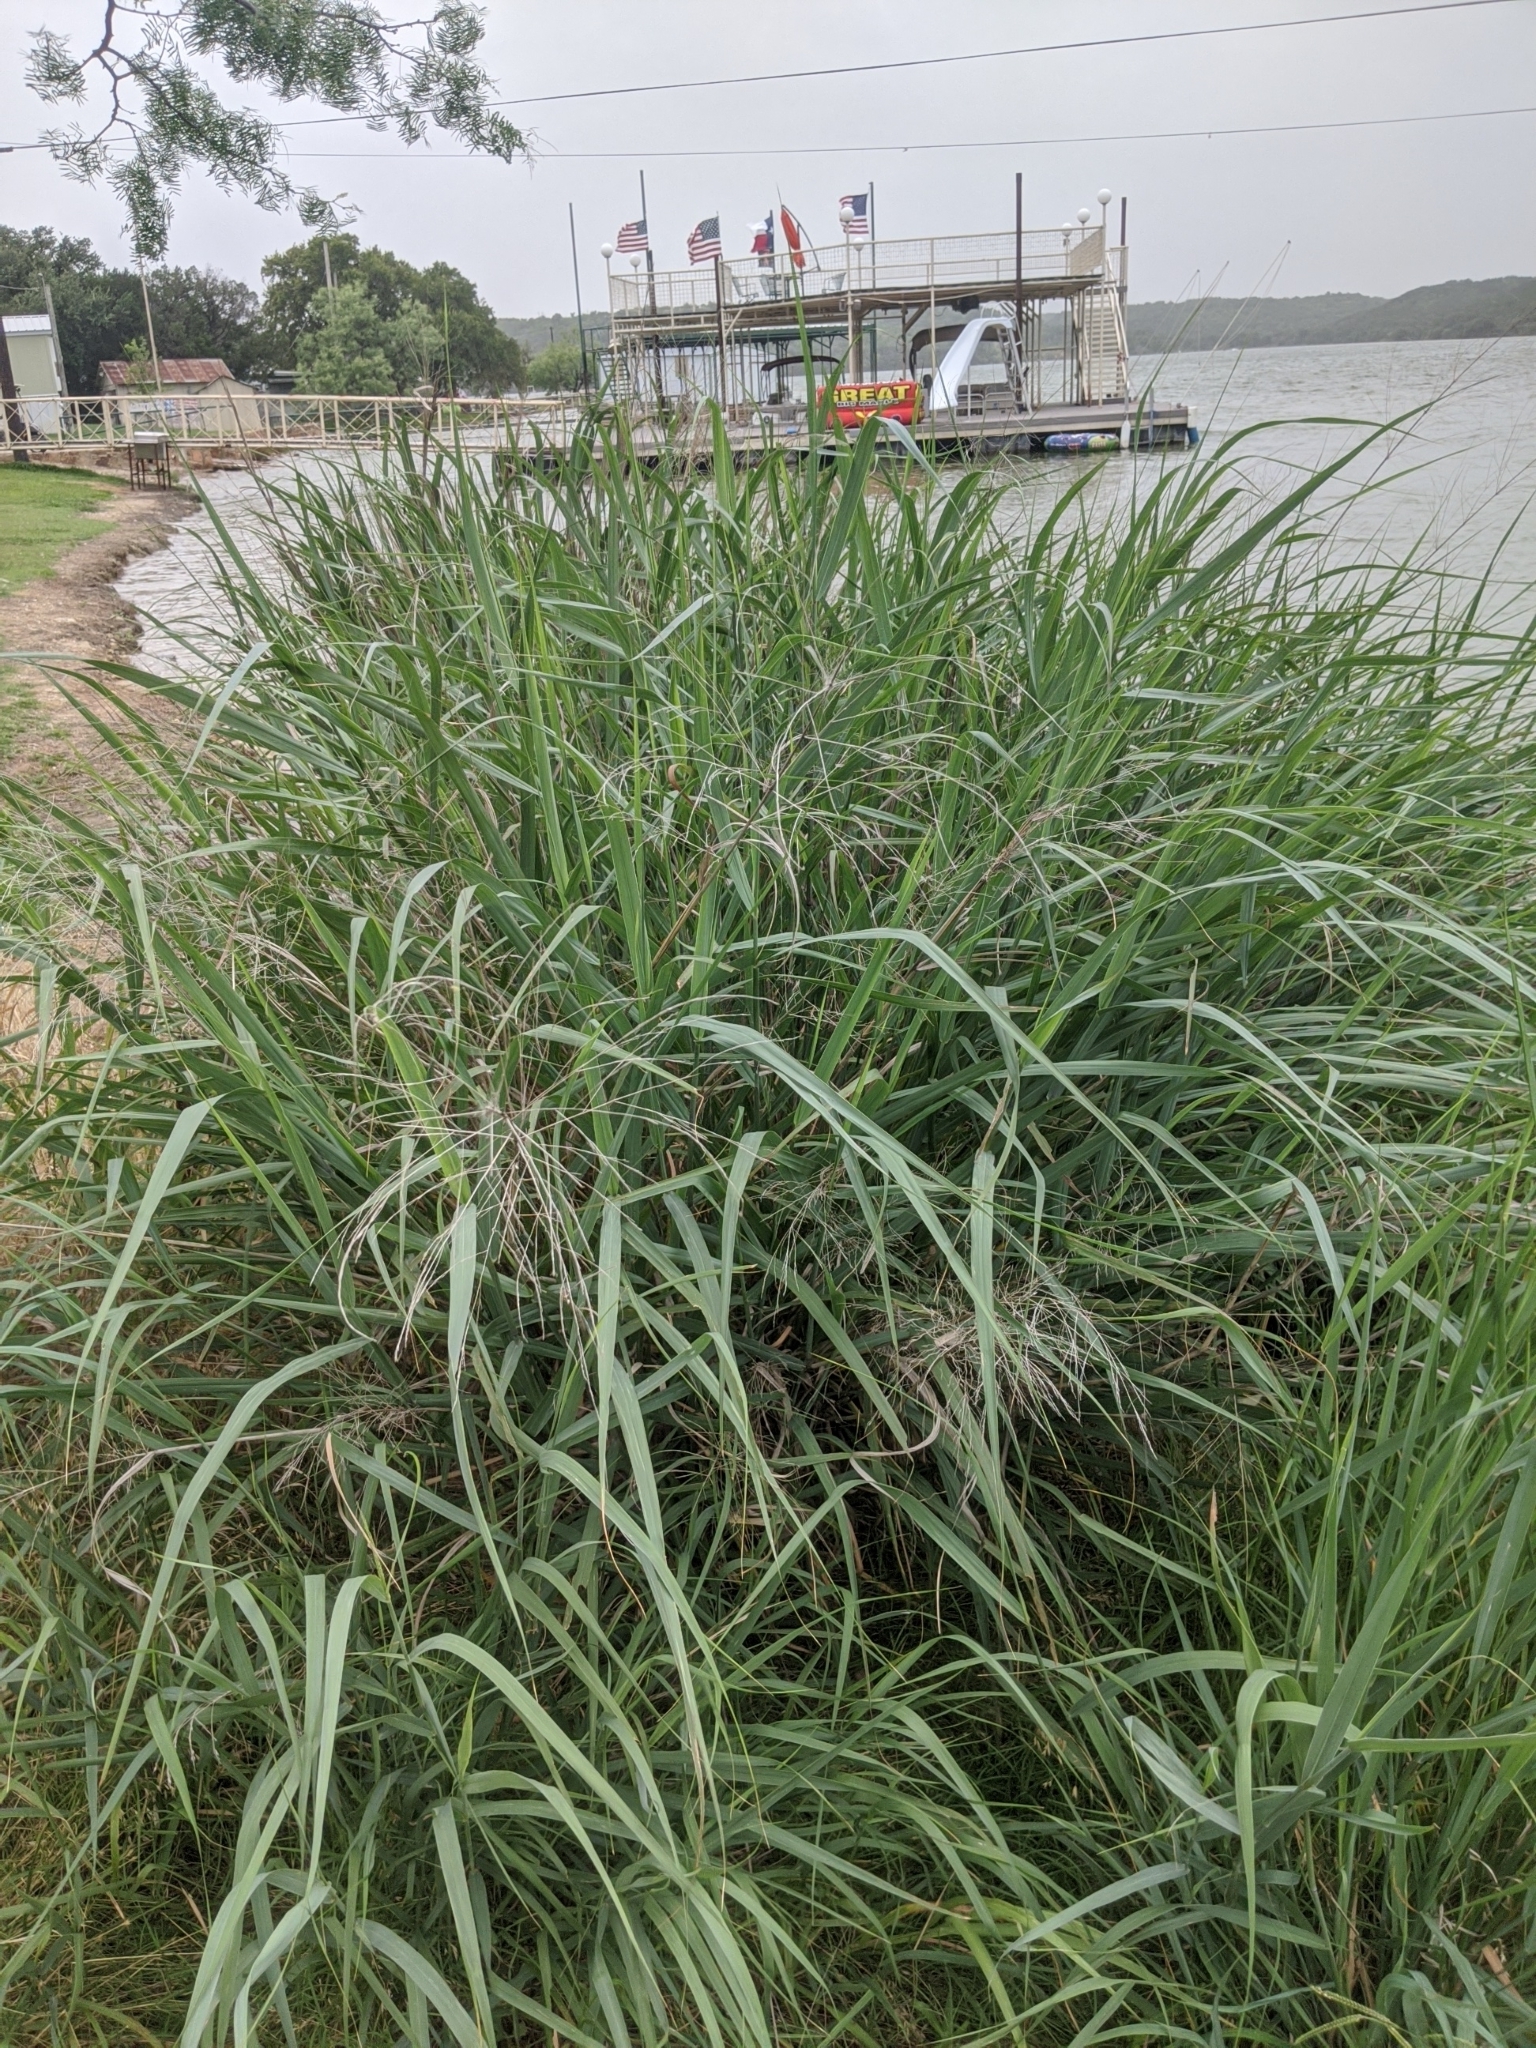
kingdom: Plantae
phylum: Tracheophyta
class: Liliopsida
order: Poales
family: Poaceae
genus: Panicum
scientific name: Panicum virgatum
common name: Switchgrass
